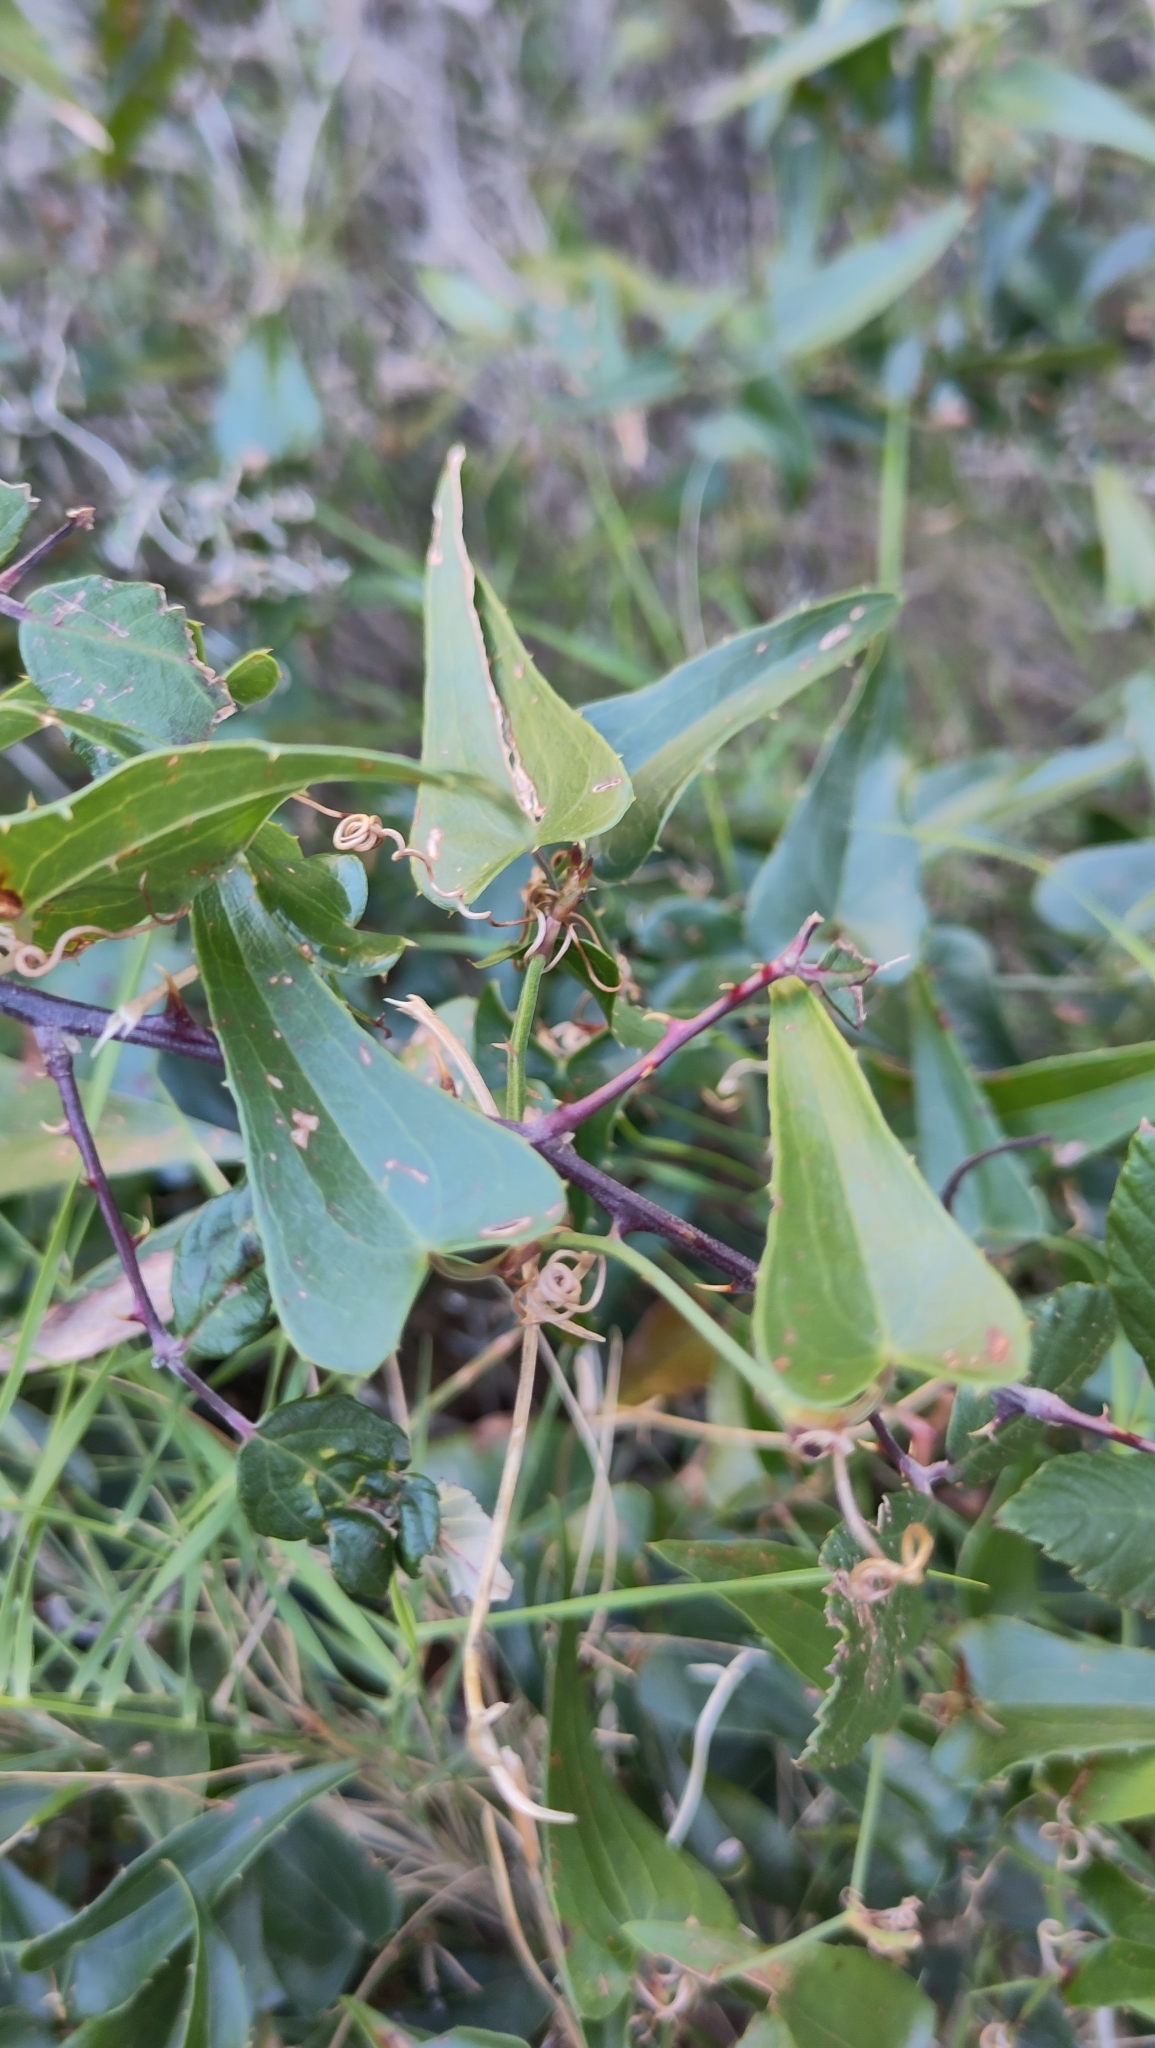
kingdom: Plantae
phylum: Tracheophyta
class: Liliopsida
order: Liliales
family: Smilacaceae
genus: Smilax
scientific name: Smilax aspera
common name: Common smilax
